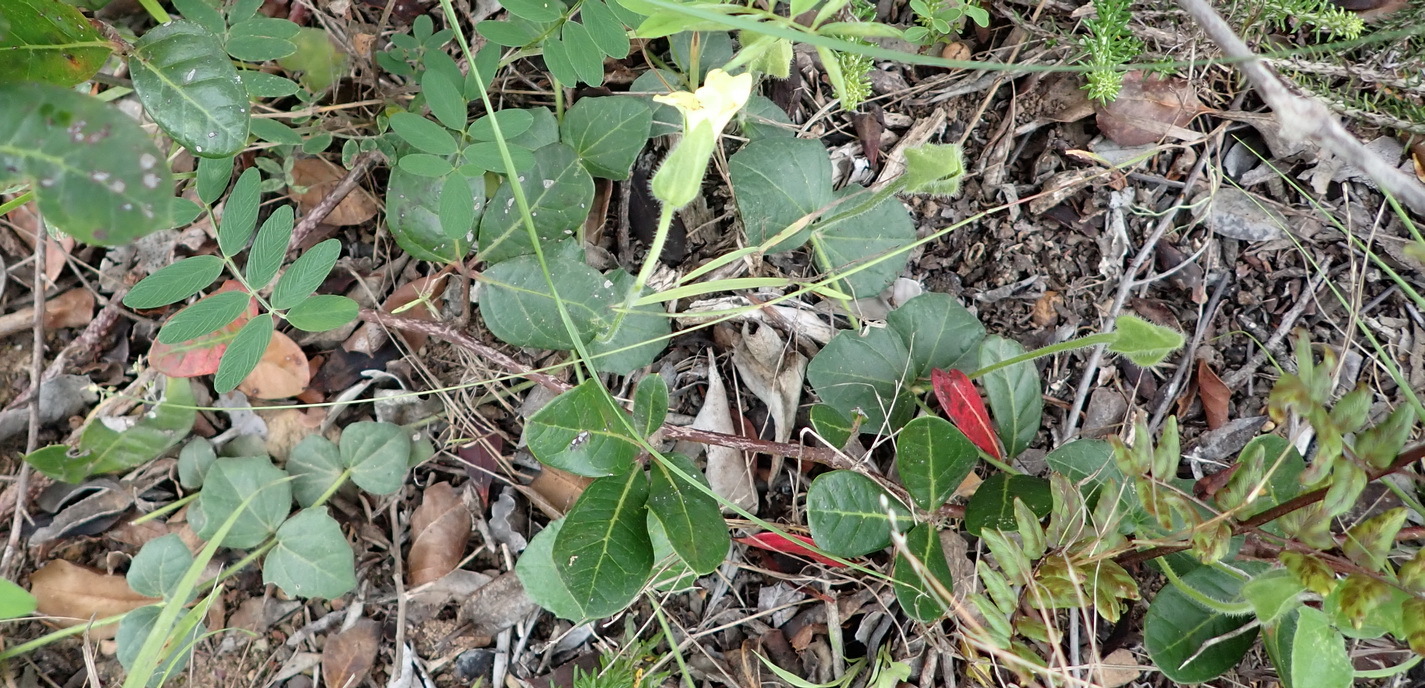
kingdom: Plantae
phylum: Tracheophyta
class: Magnoliopsida
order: Lamiales
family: Acanthaceae
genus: Thunbergia
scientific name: Thunbergia capensis
